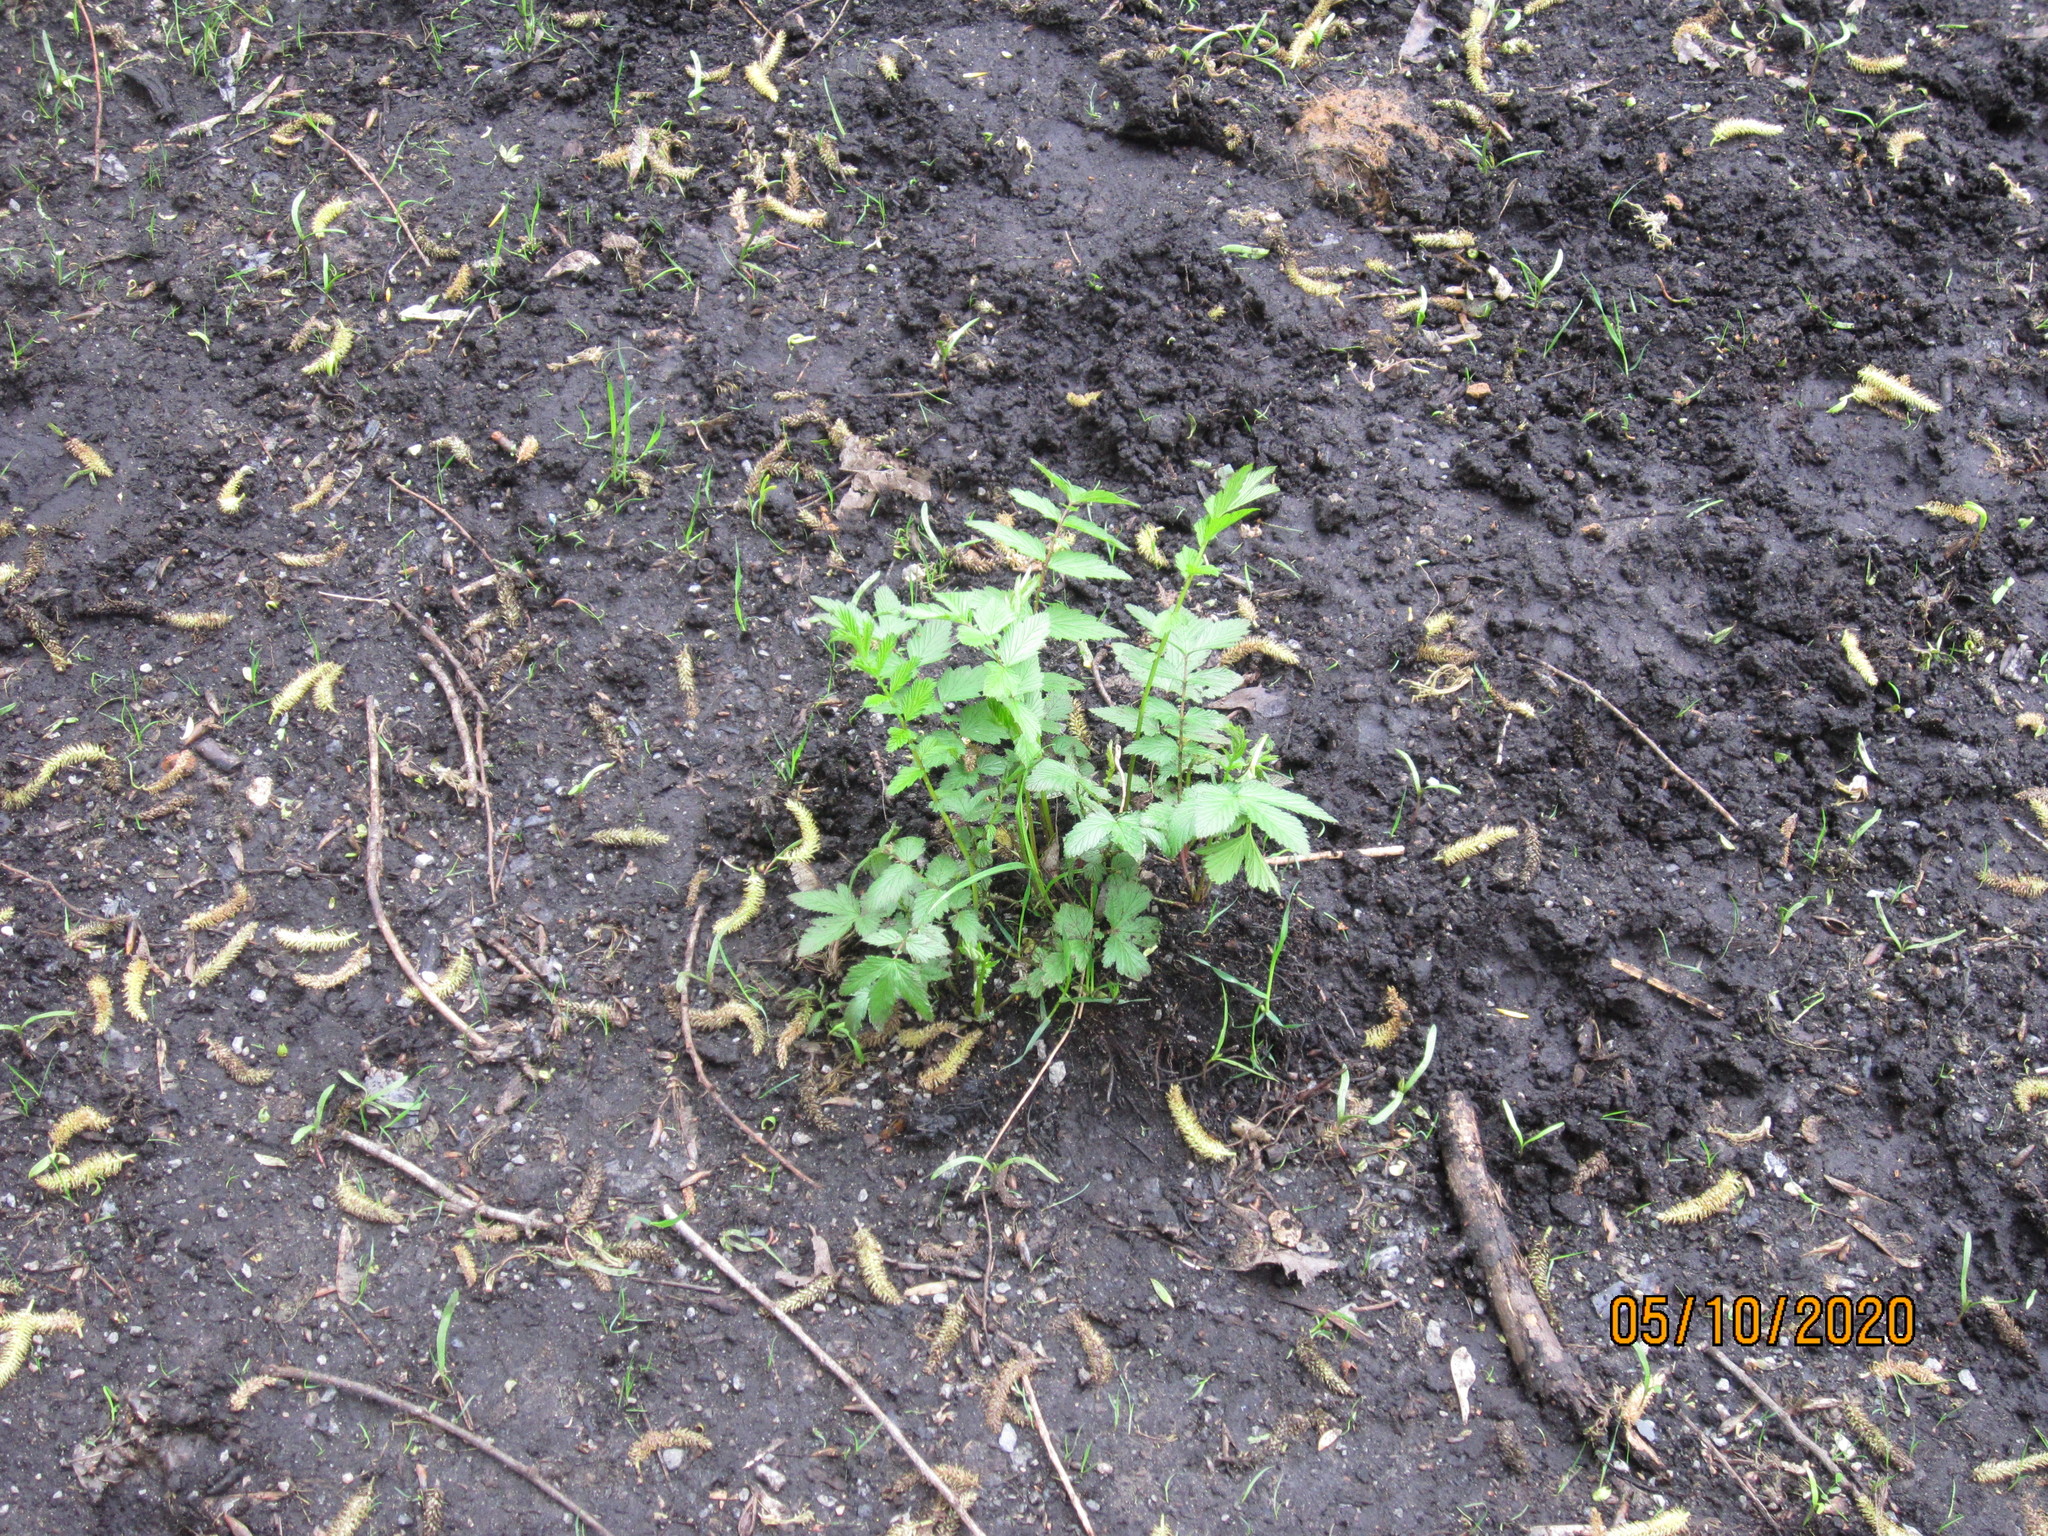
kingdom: Plantae
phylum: Tracheophyta
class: Magnoliopsida
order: Rosales
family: Rosaceae
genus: Filipendula
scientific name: Filipendula ulmaria
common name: Meadowsweet
